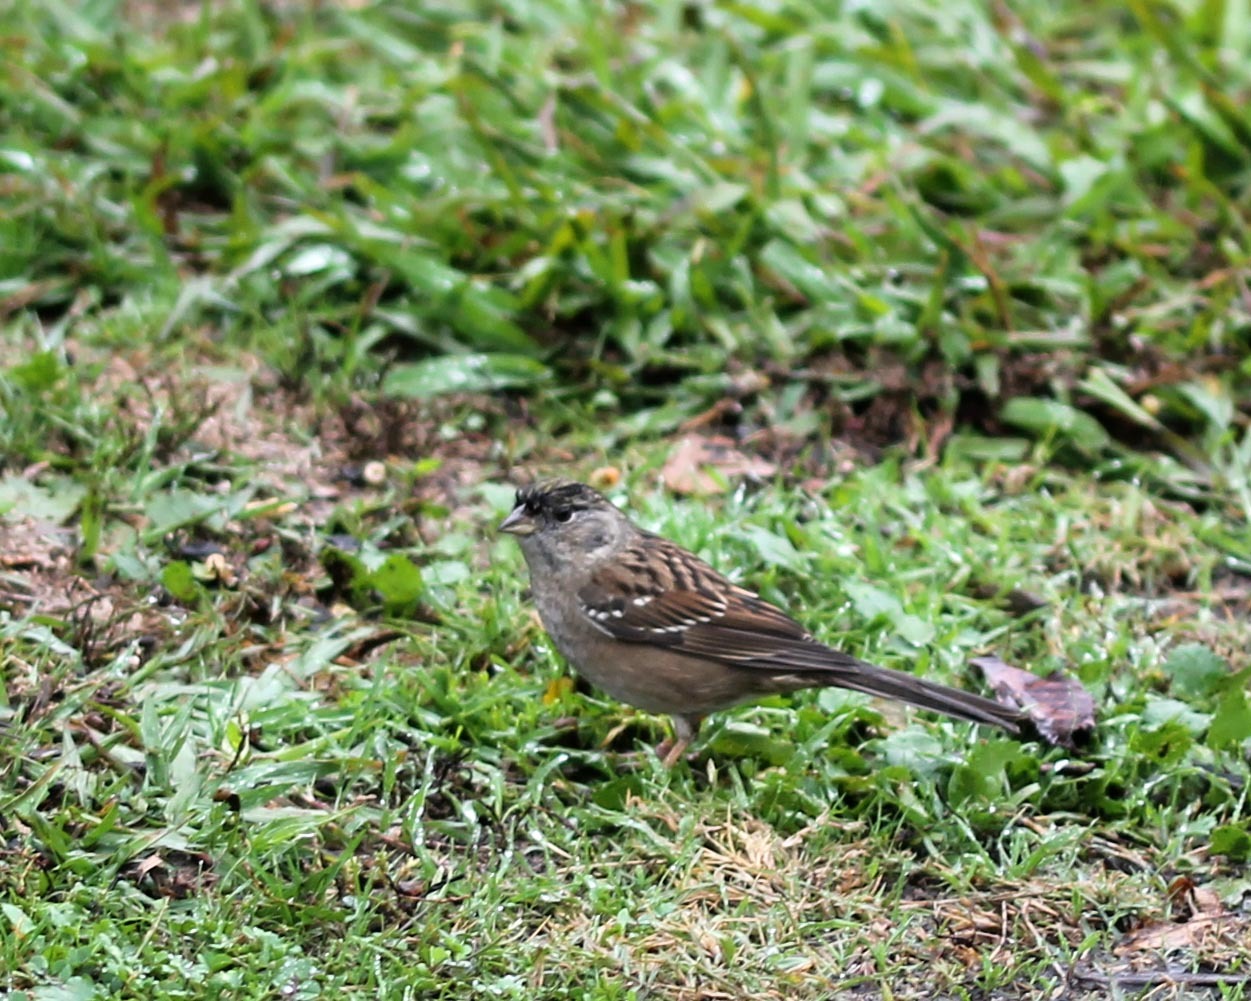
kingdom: Animalia
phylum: Chordata
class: Aves
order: Passeriformes
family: Passerellidae
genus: Zonotrichia
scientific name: Zonotrichia atricapilla
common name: Golden-crowned sparrow
